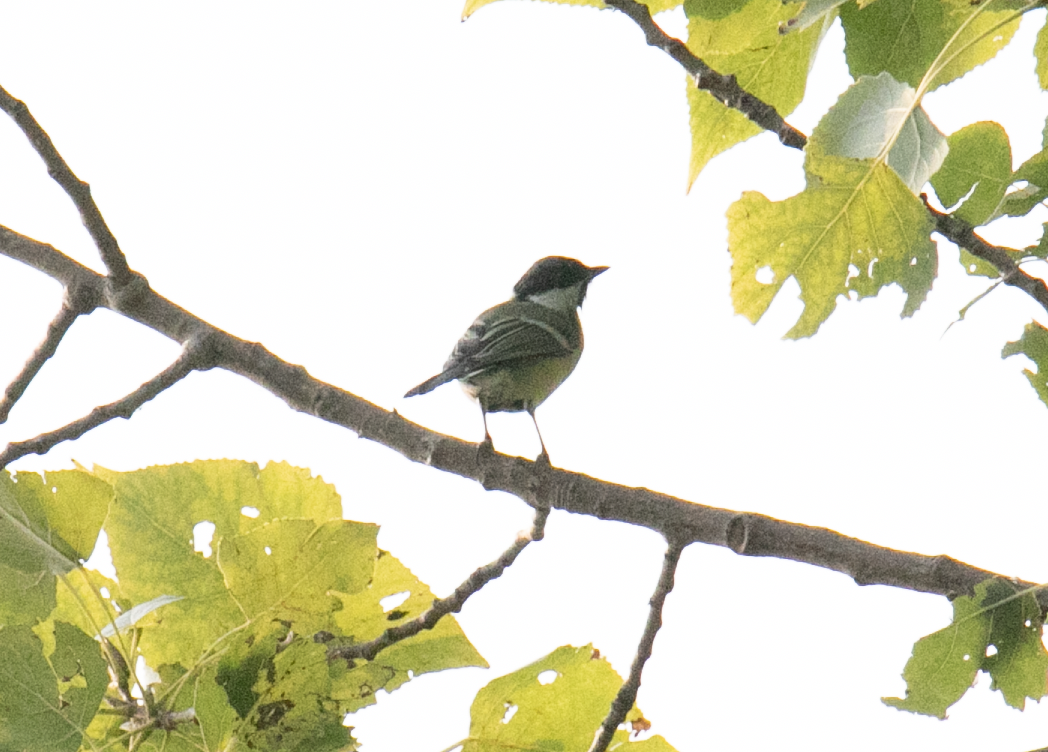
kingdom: Animalia
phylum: Chordata
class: Aves
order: Passeriformes
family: Paridae
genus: Parus
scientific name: Parus major
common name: Great tit
